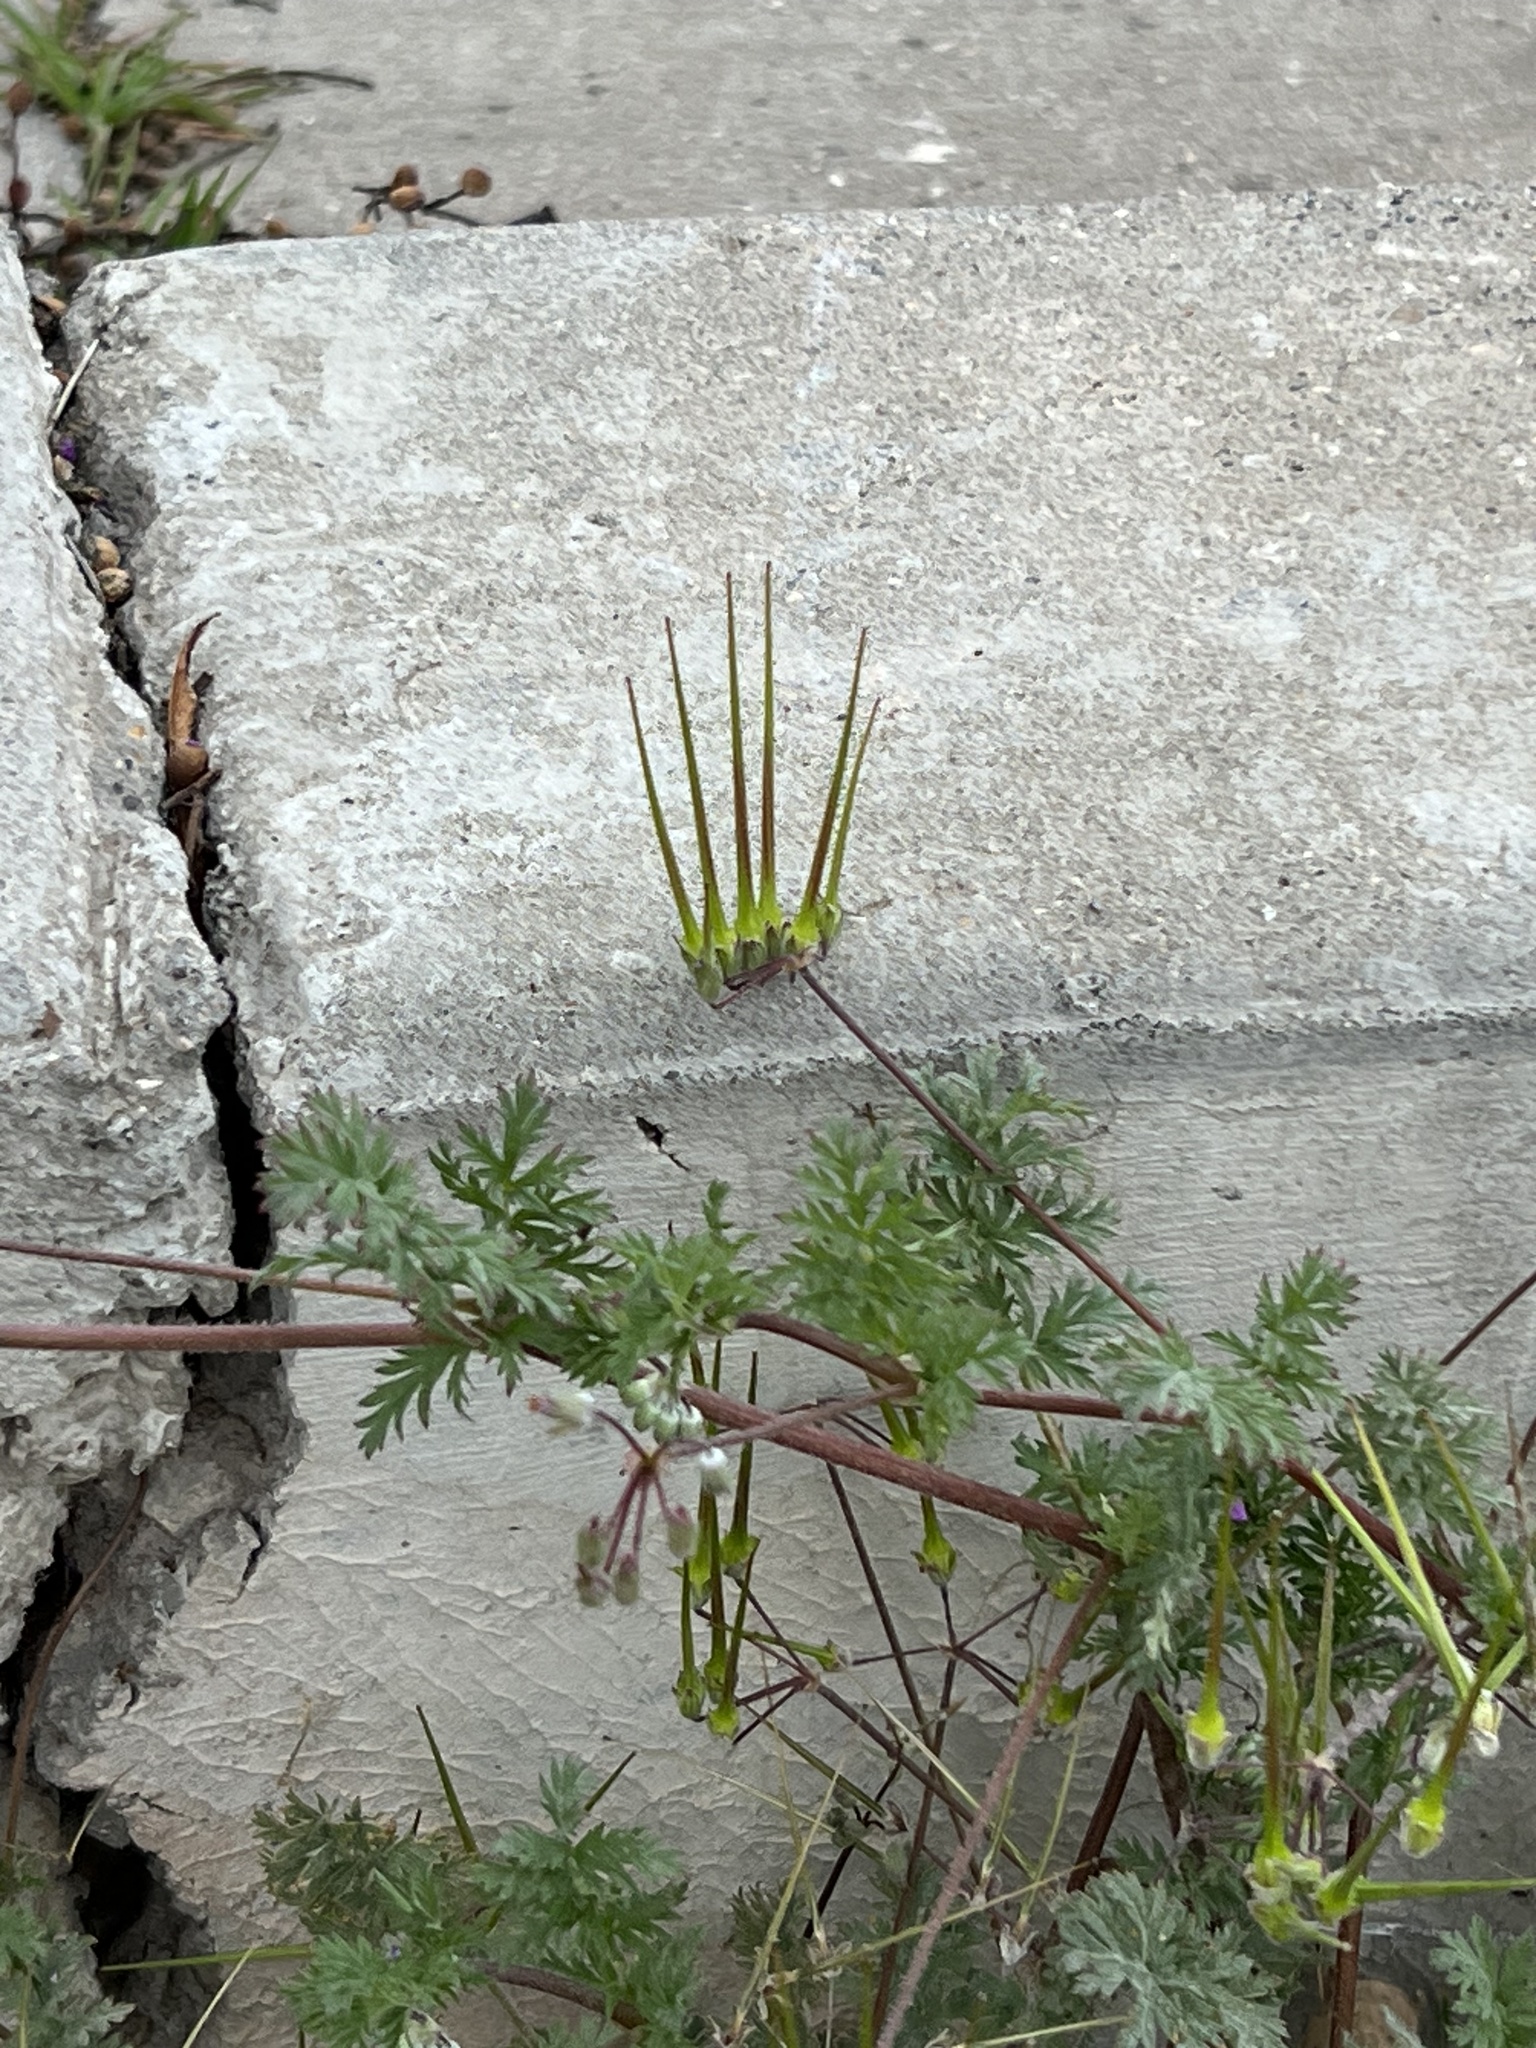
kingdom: Plantae
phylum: Tracheophyta
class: Magnoliopsida
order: Geraniales
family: Geraniaceae
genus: Erodium
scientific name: Erodium cicutarium
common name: Common stork's-bill
